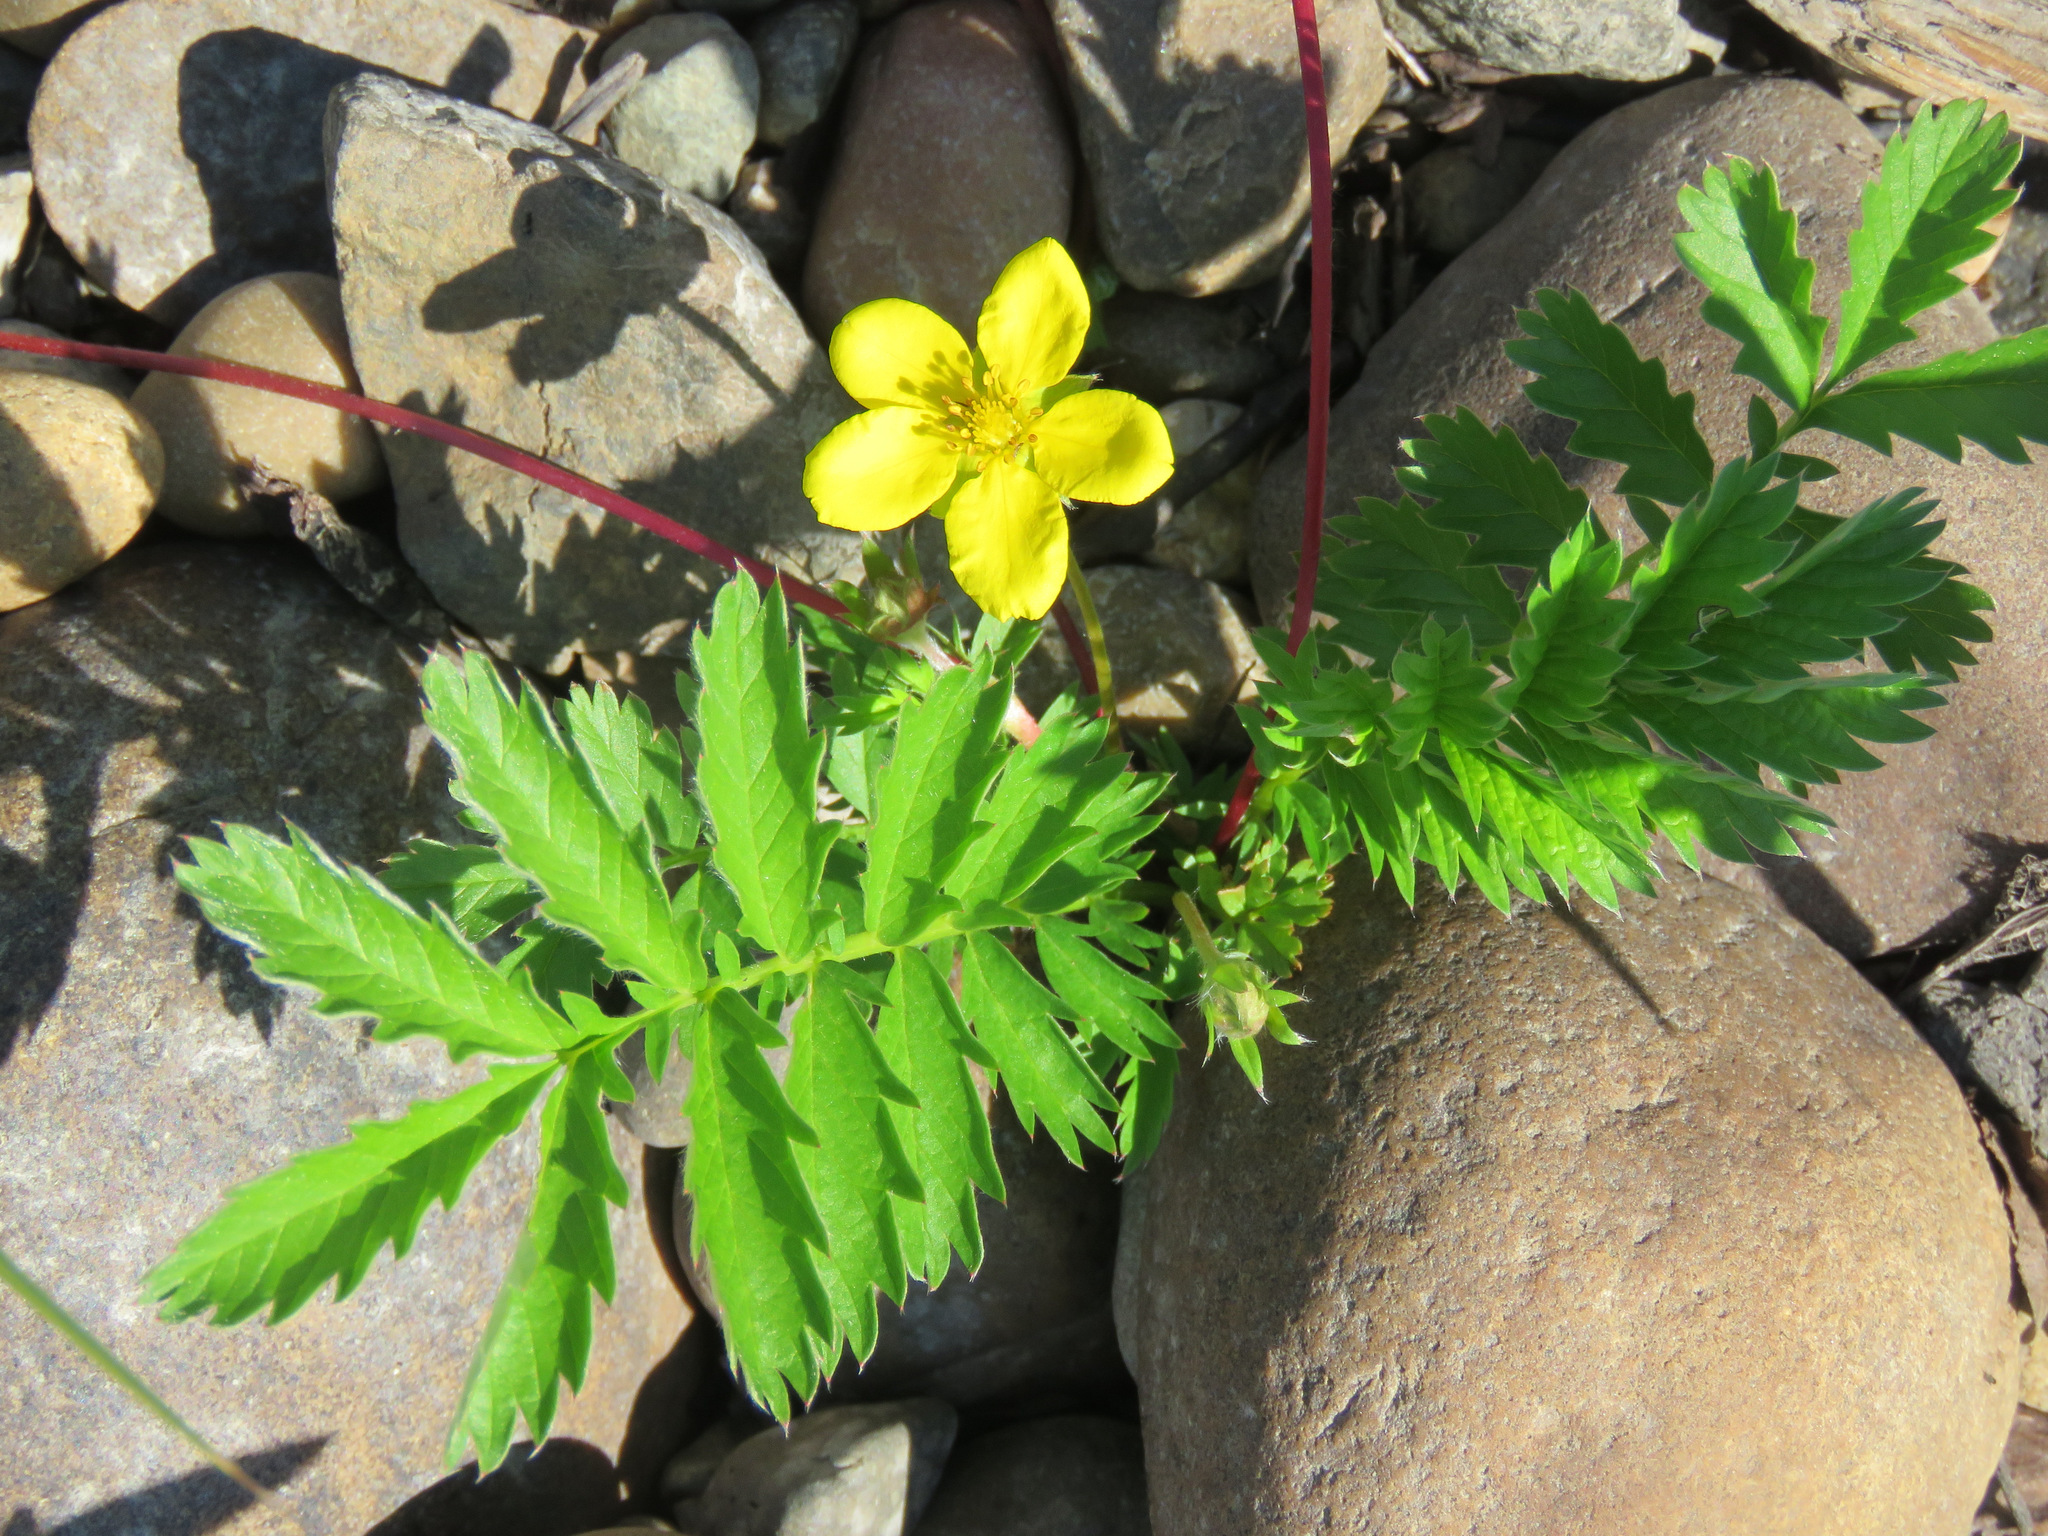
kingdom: Plantae
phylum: Tracheophyta
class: Magnoliopsida
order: Rosales
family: Rosaceae
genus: Argentina
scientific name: Argentina anserina
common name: Common silverweed
